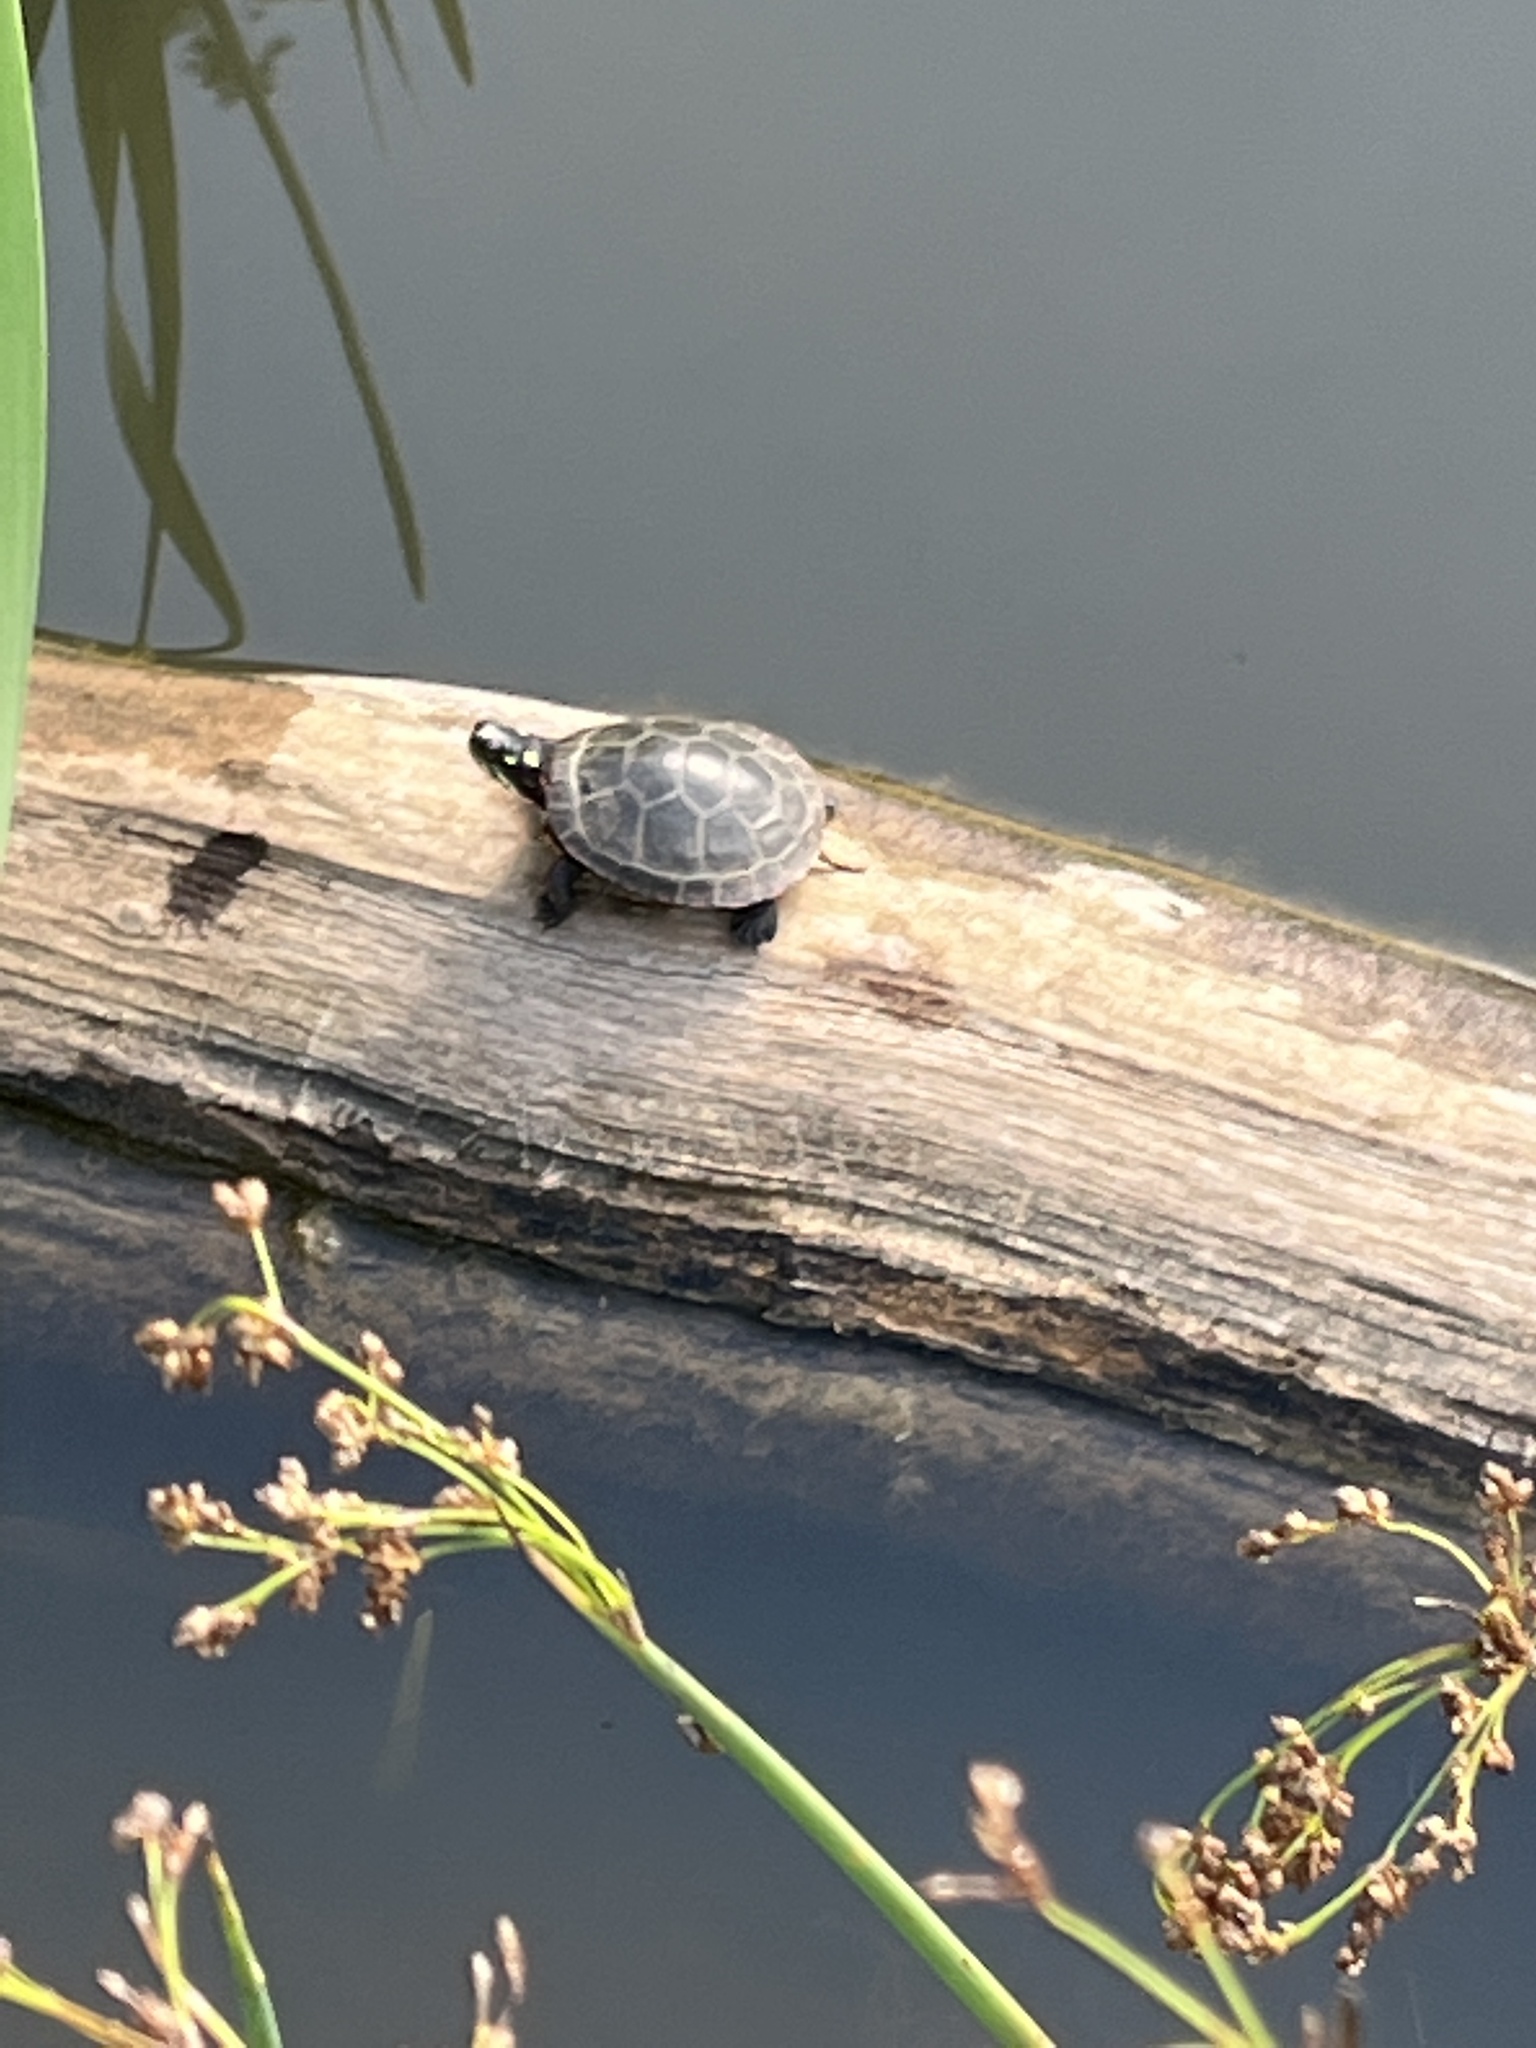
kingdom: Animalia
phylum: Chordata
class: Testudines
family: Emydidae
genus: Chrysemys
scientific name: Chrysemys picta
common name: Painted turtle
